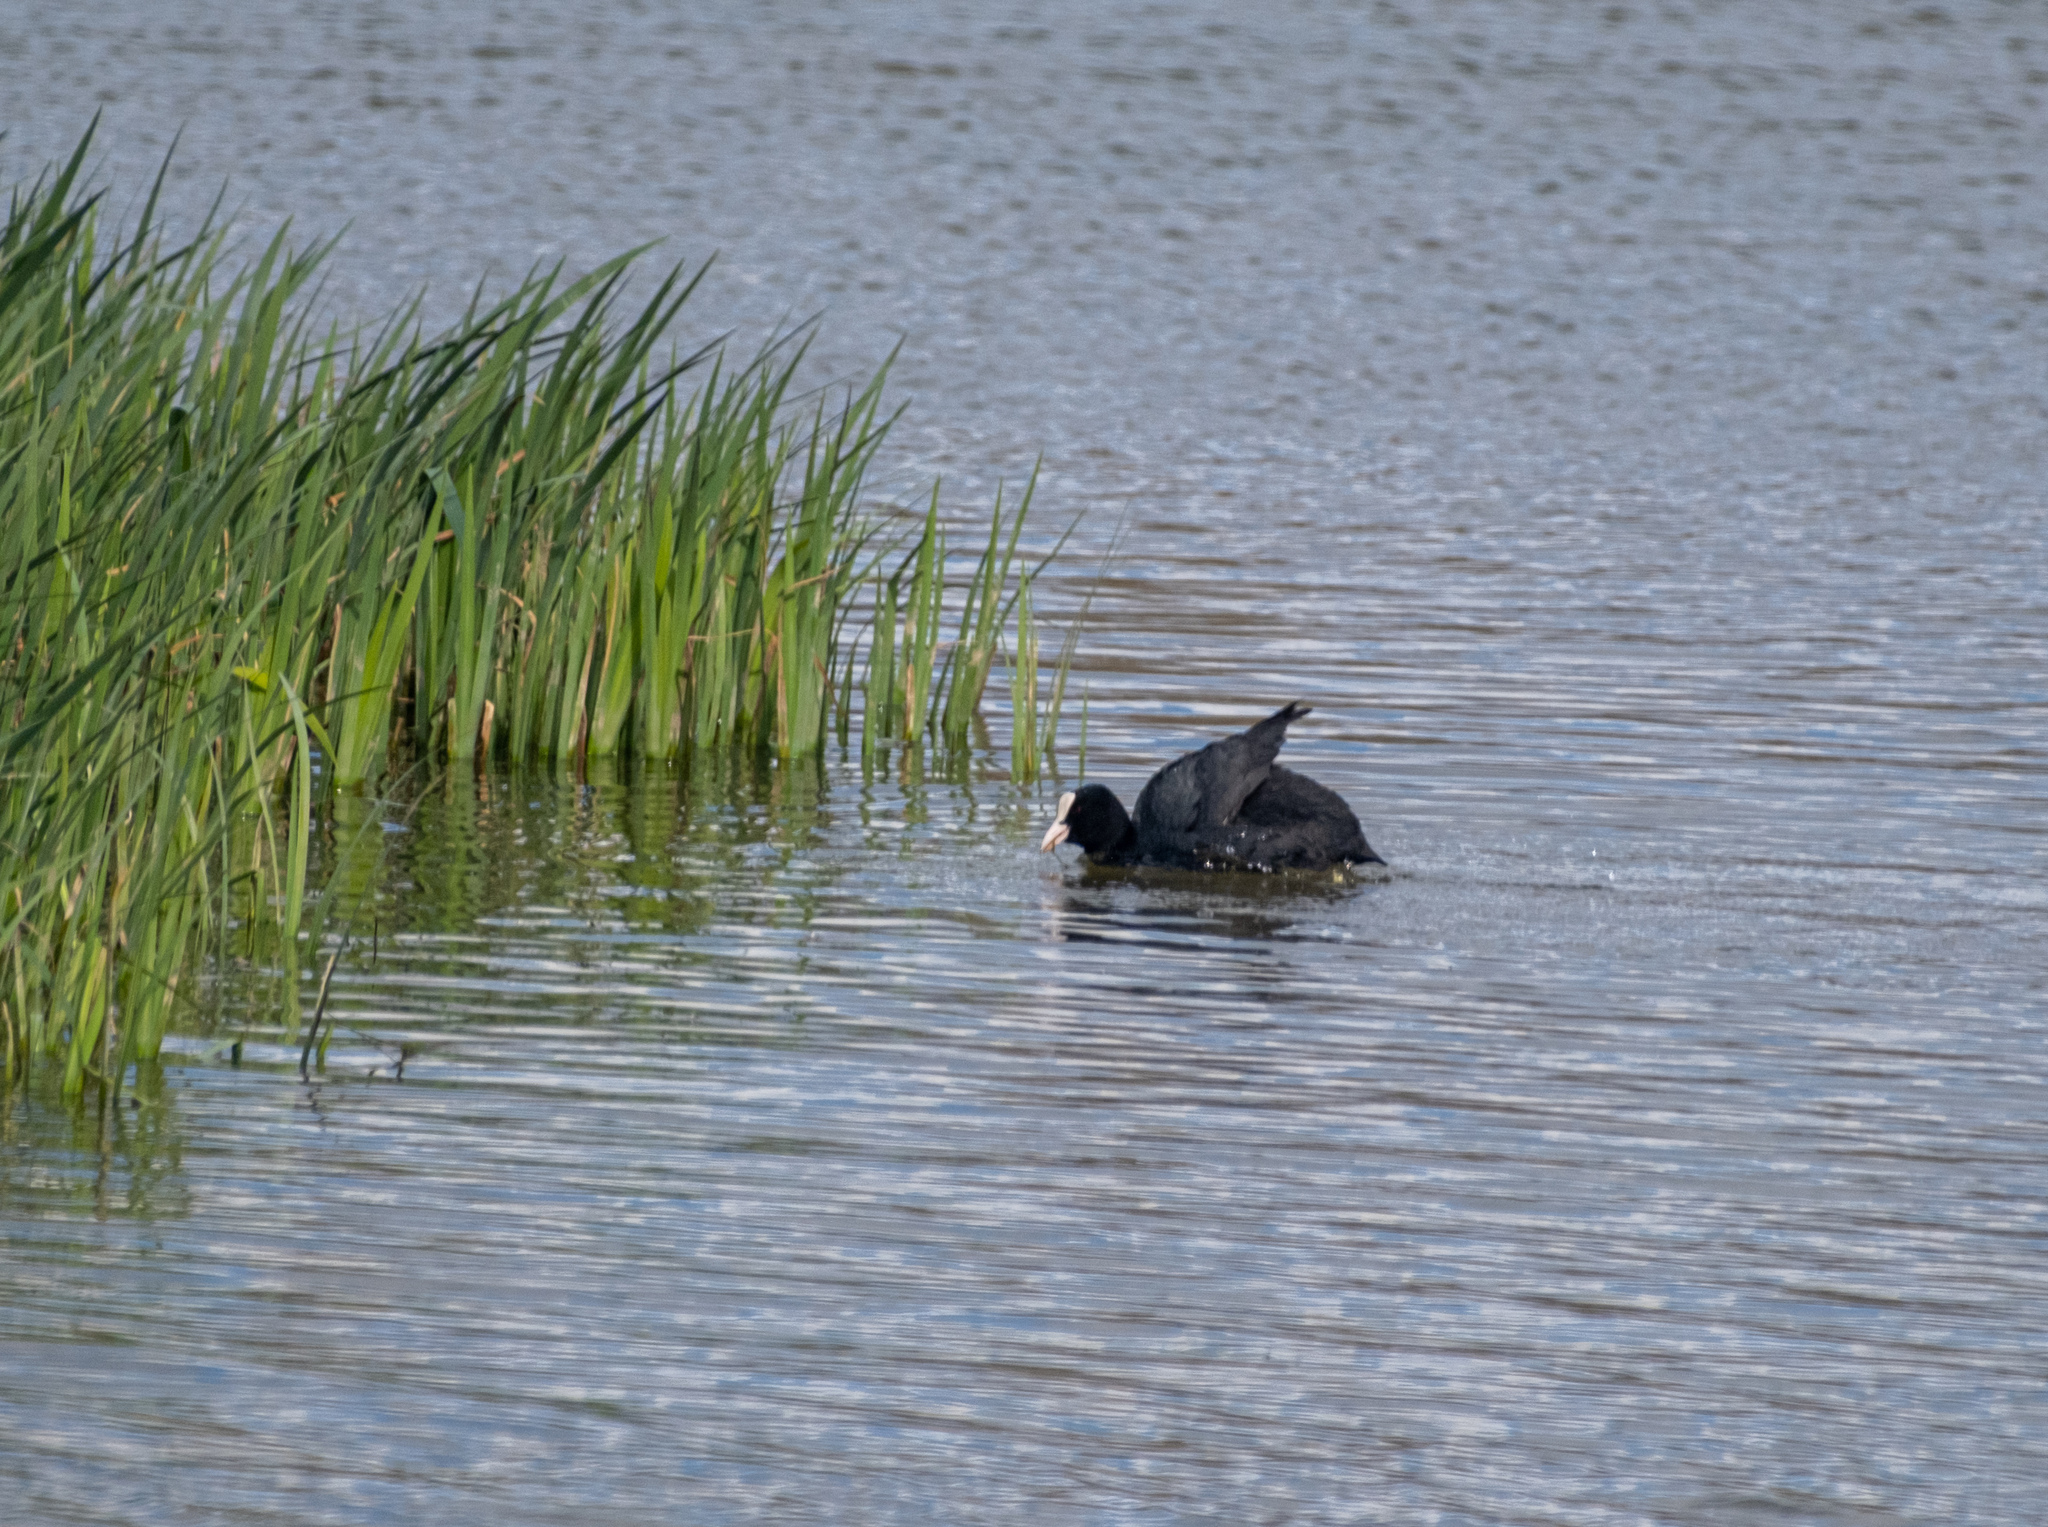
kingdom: Animalia
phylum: Chordata
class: Aves
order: Gruiformes
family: Rallidae
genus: Fulica
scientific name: Fulica atra
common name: Eurasian coot
